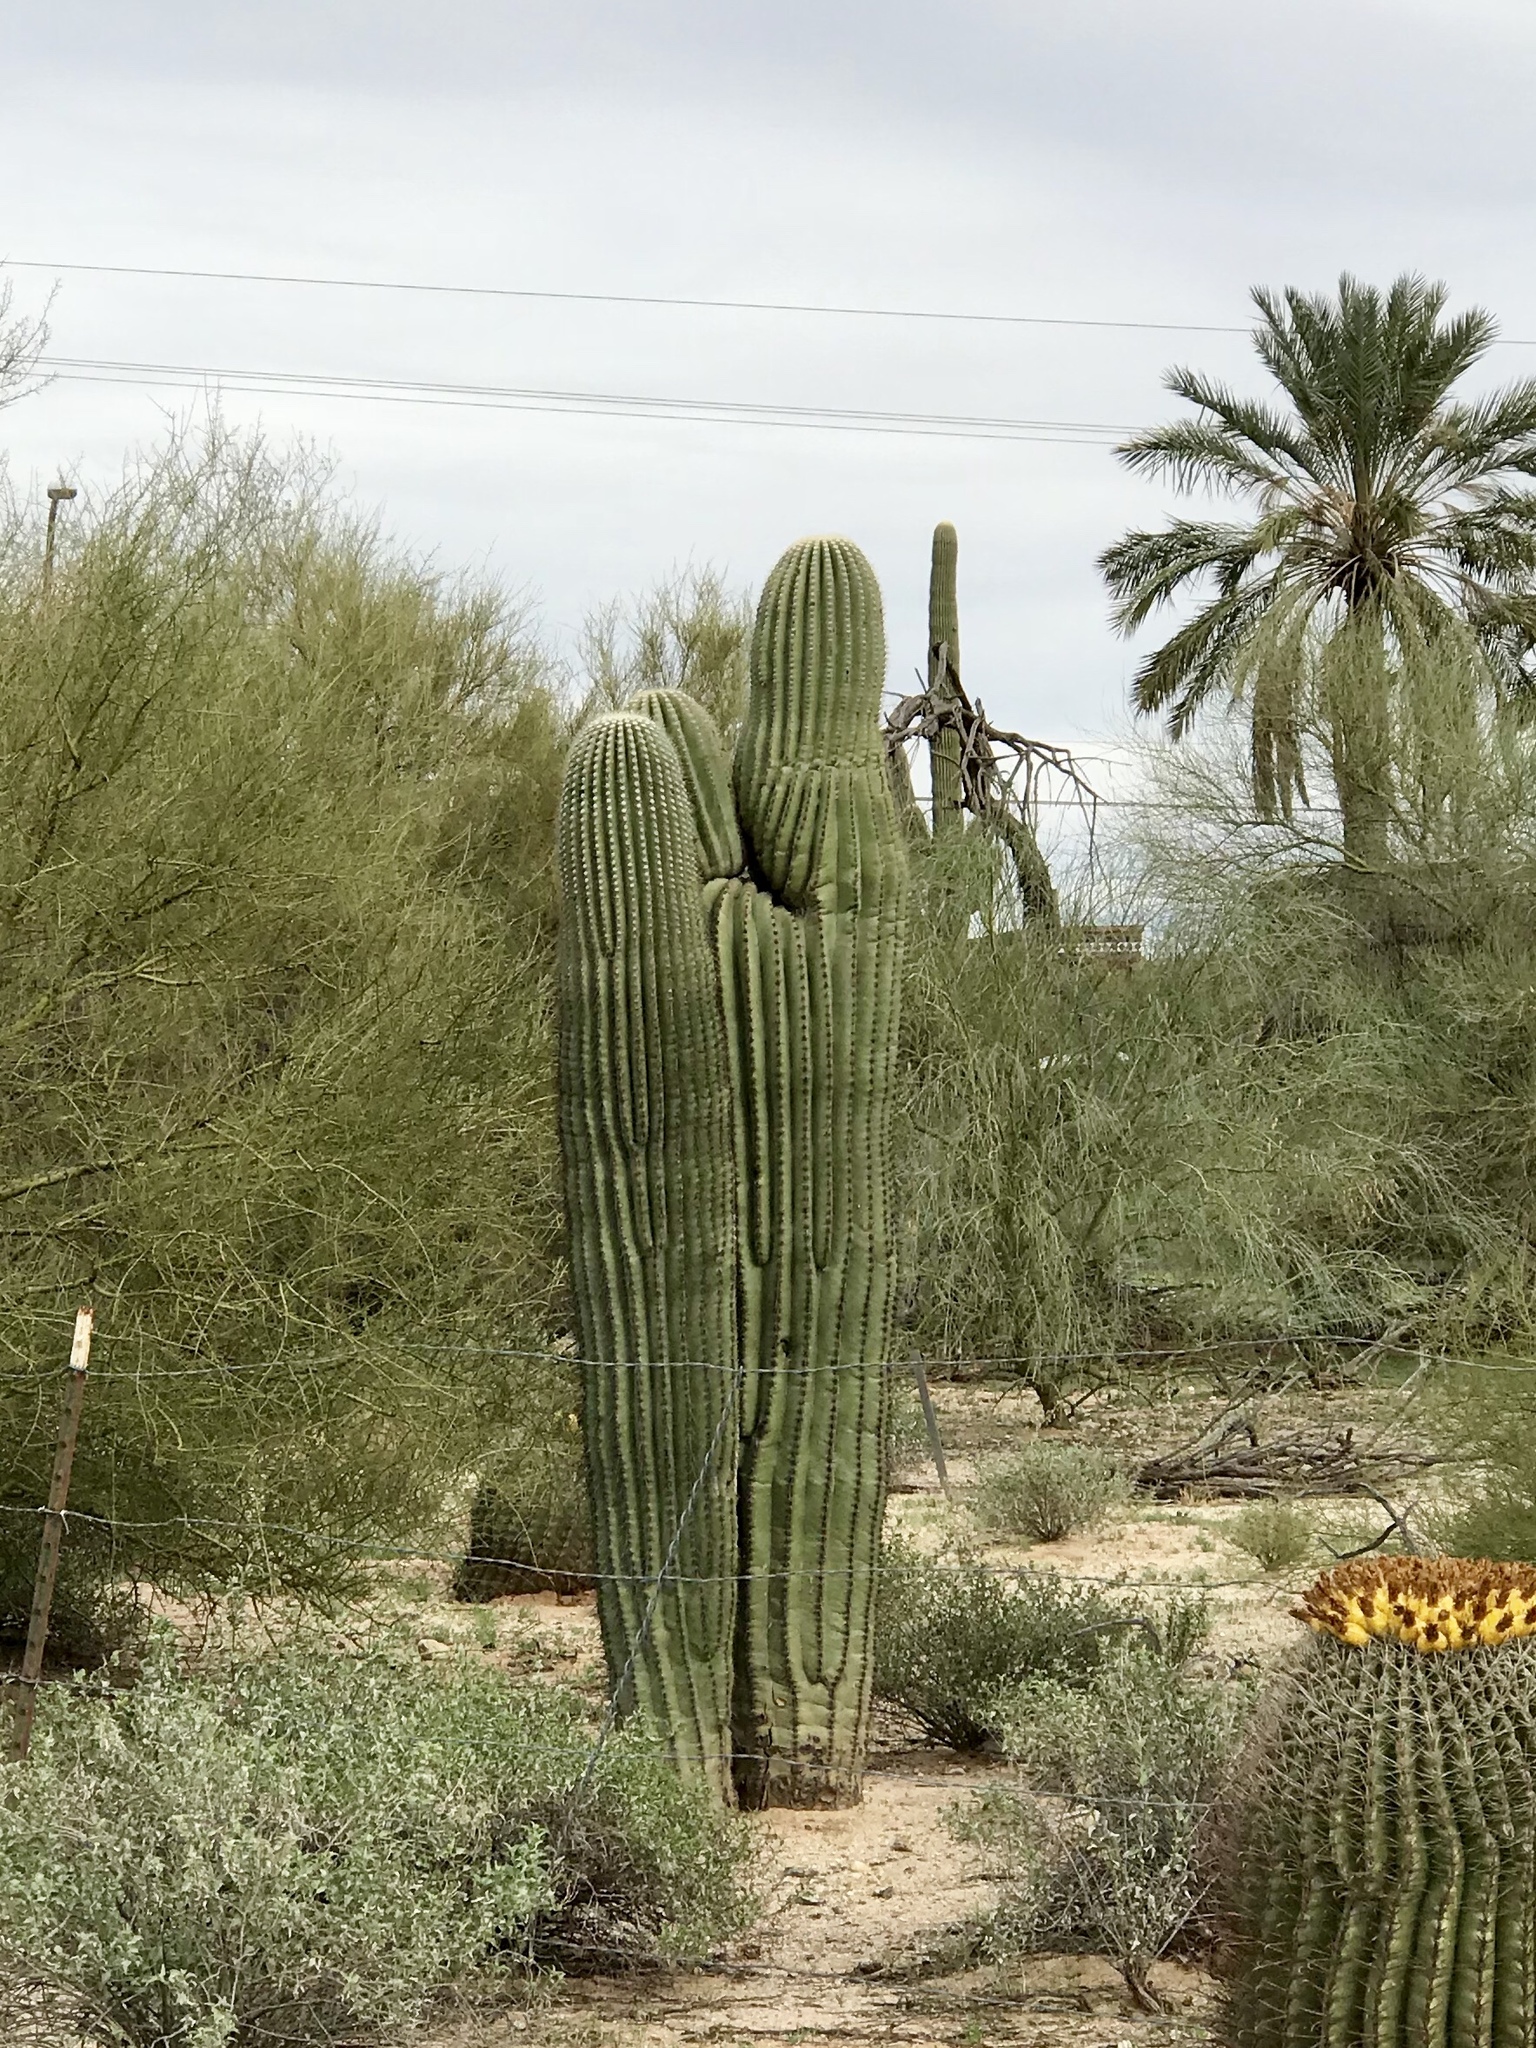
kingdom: Plantae
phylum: Tracheophyta
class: Magnoliopsida
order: Caryophyllales
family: Cactaceae
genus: Carnegiea
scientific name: Carnegiea gigantea
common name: Saguaro
